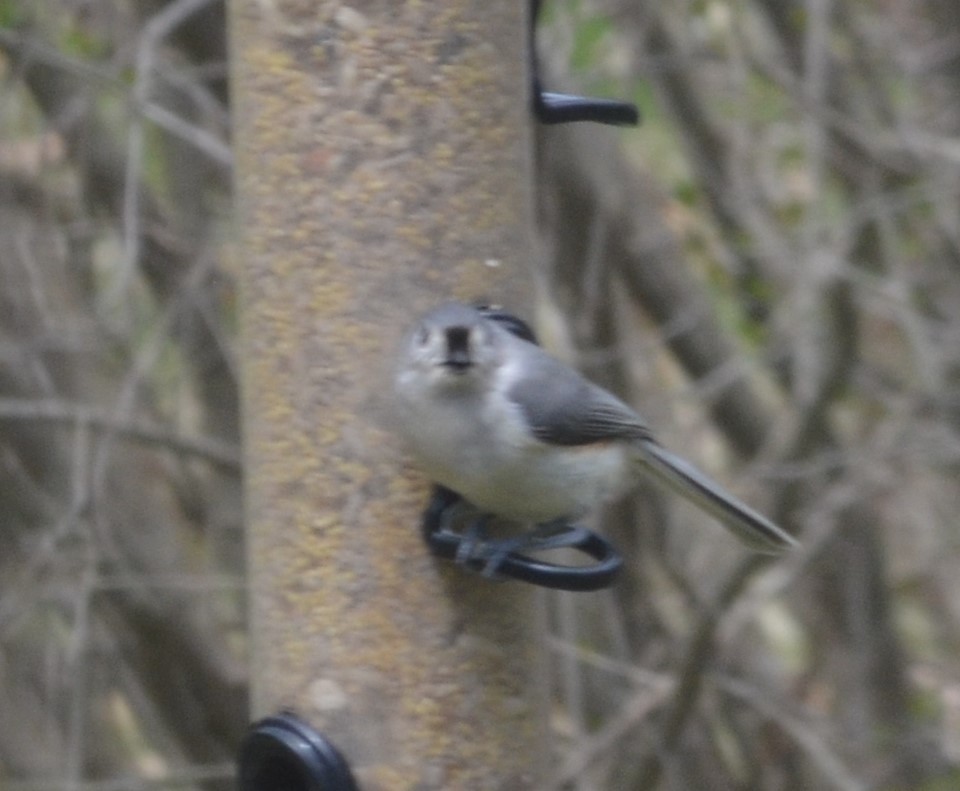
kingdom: Animalia
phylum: Chordata
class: Aves
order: Passeriformes
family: Paridae
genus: Baeolophus
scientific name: Baeolophus bicolor
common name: Tufted titmouse
